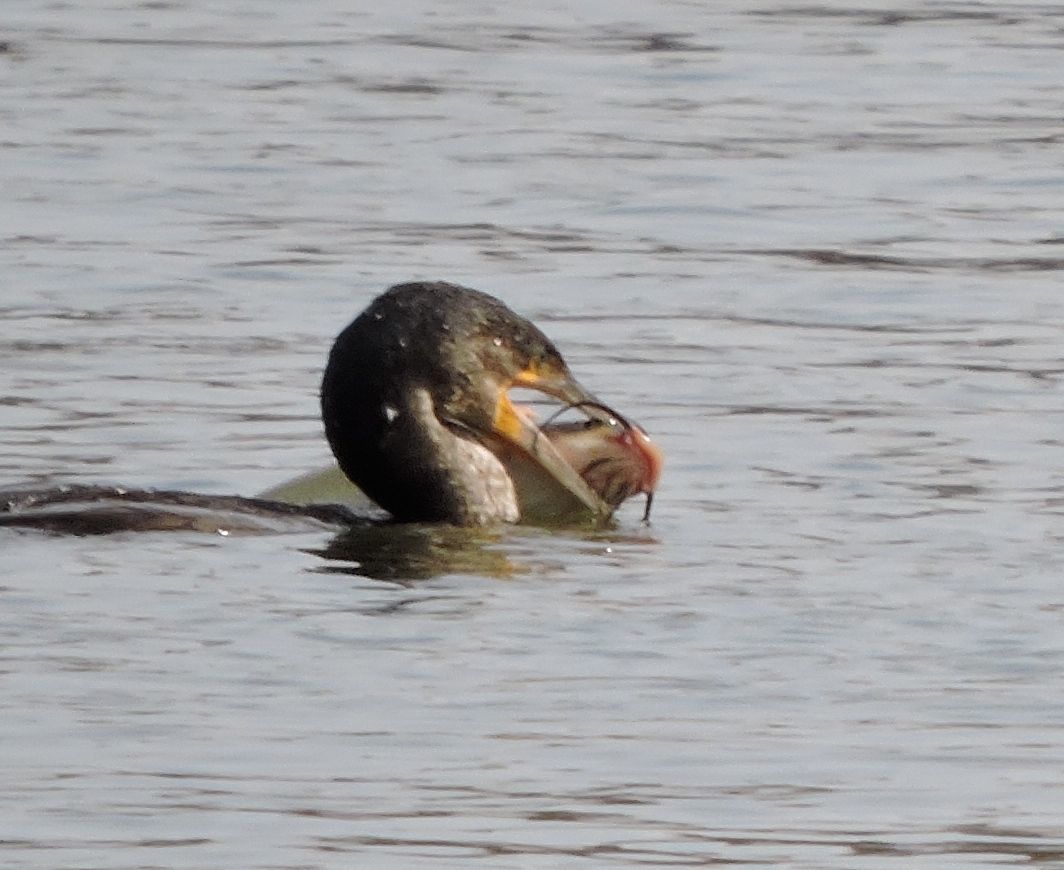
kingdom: Animalia
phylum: Chordata
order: Siluriformes
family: Ictaluridae
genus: Ictalurus
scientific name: Ictalurus punctatus
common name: Channel catfish
